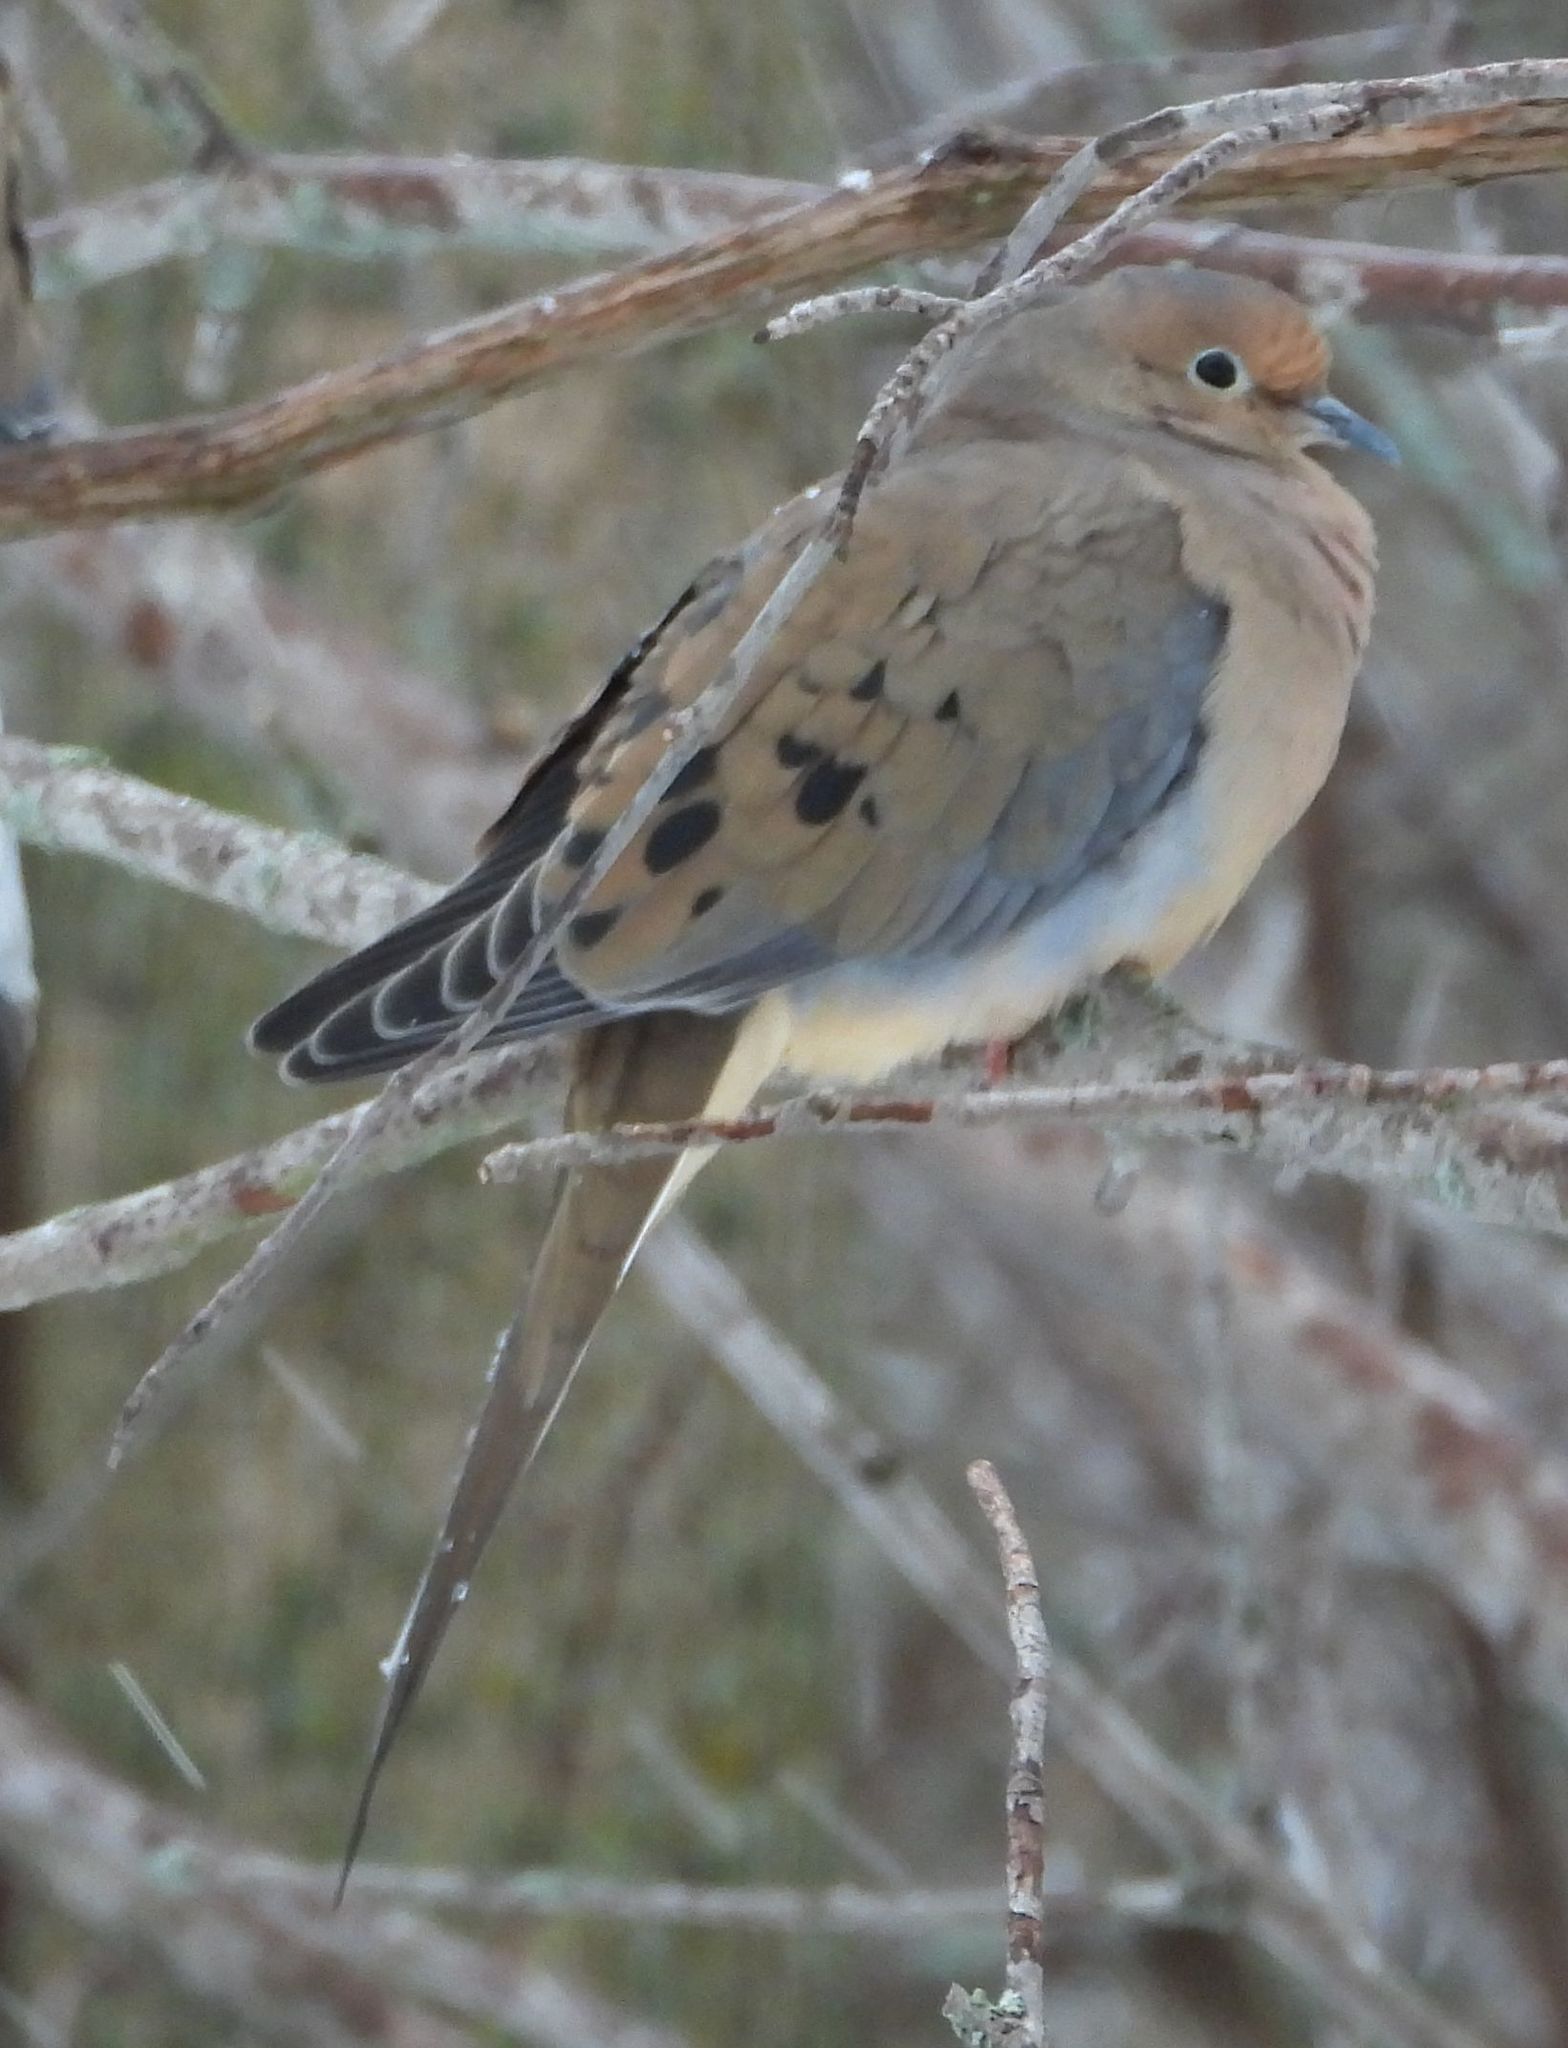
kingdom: Animalia
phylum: Chordata
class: Aves
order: Columbiformes
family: Columbidae
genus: Zenaida
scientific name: Zenaida macroura
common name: Mourning dove
